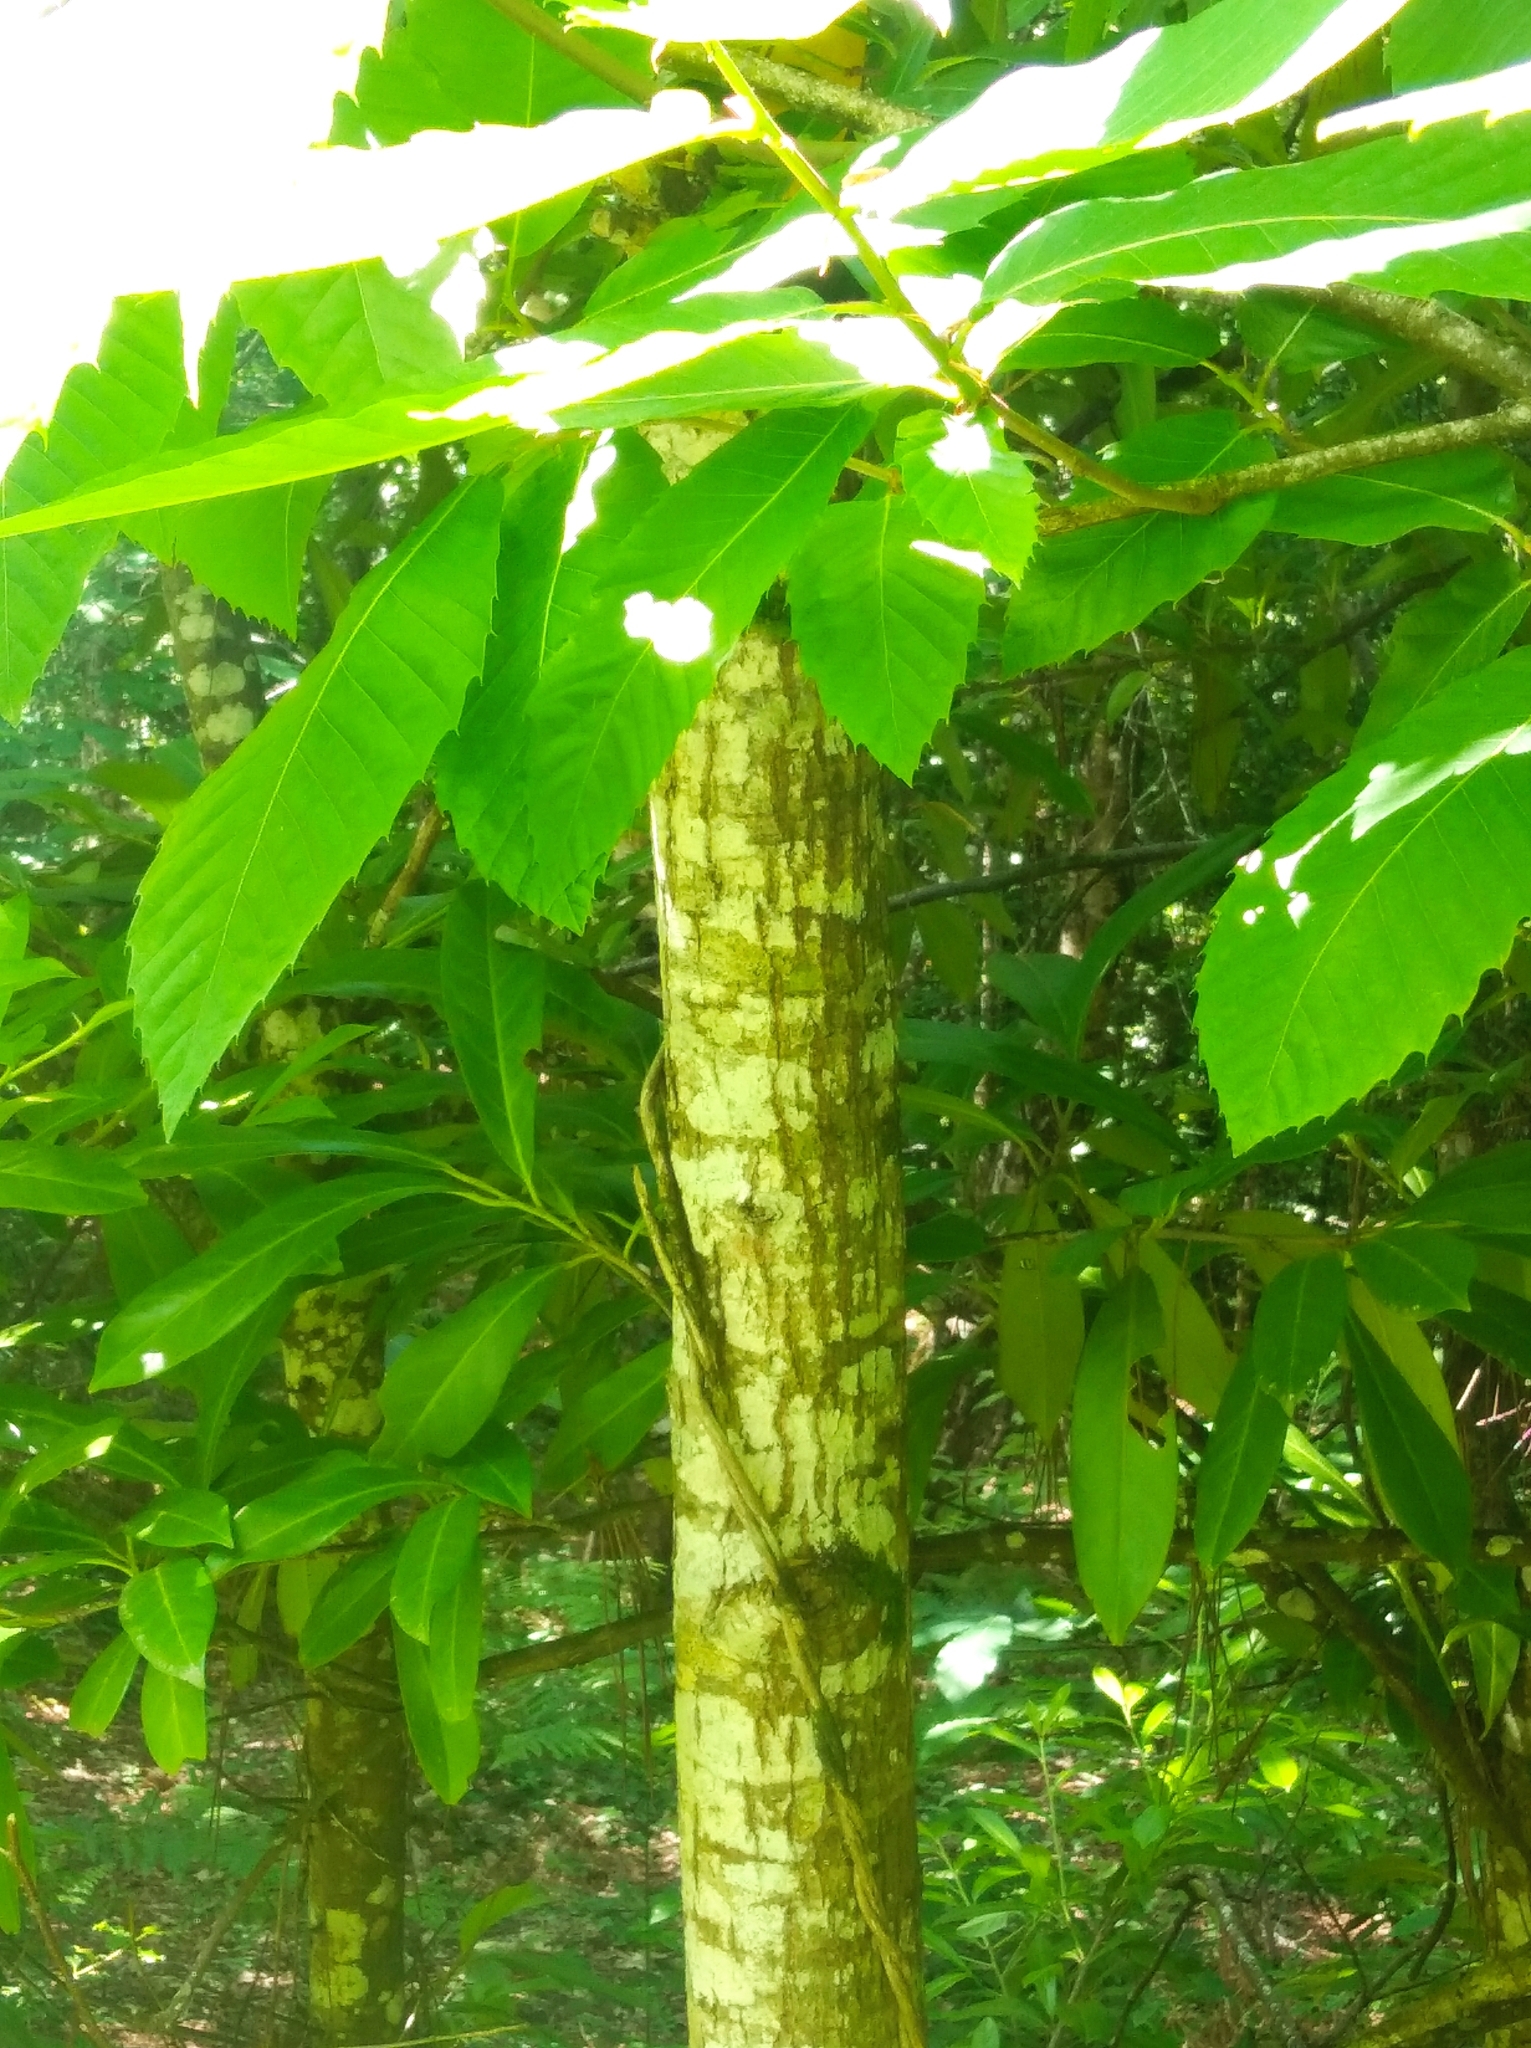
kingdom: Plantae
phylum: Tracheophyta
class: Magnoliopsida
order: Fagales
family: Fagaceae
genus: Castanea
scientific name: Castanea sativa
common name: Sweet chestnut
